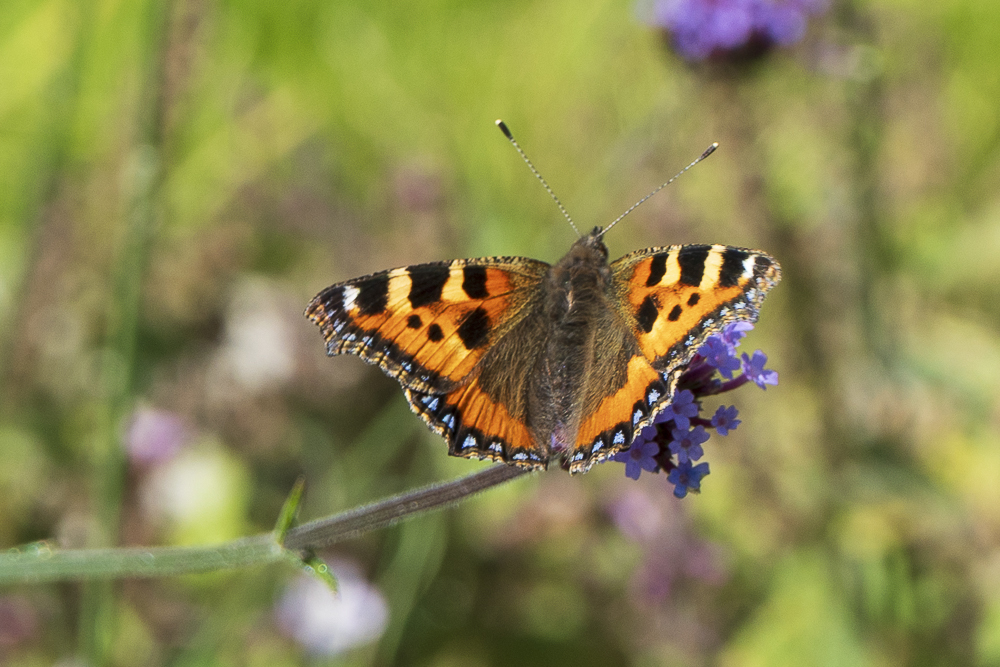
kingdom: Animalia
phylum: Arthropoda
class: Insecta
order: Lepidoptera
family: Nymphalidae
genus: Aglais
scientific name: Aglais urticae
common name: Small tortoiseshell
